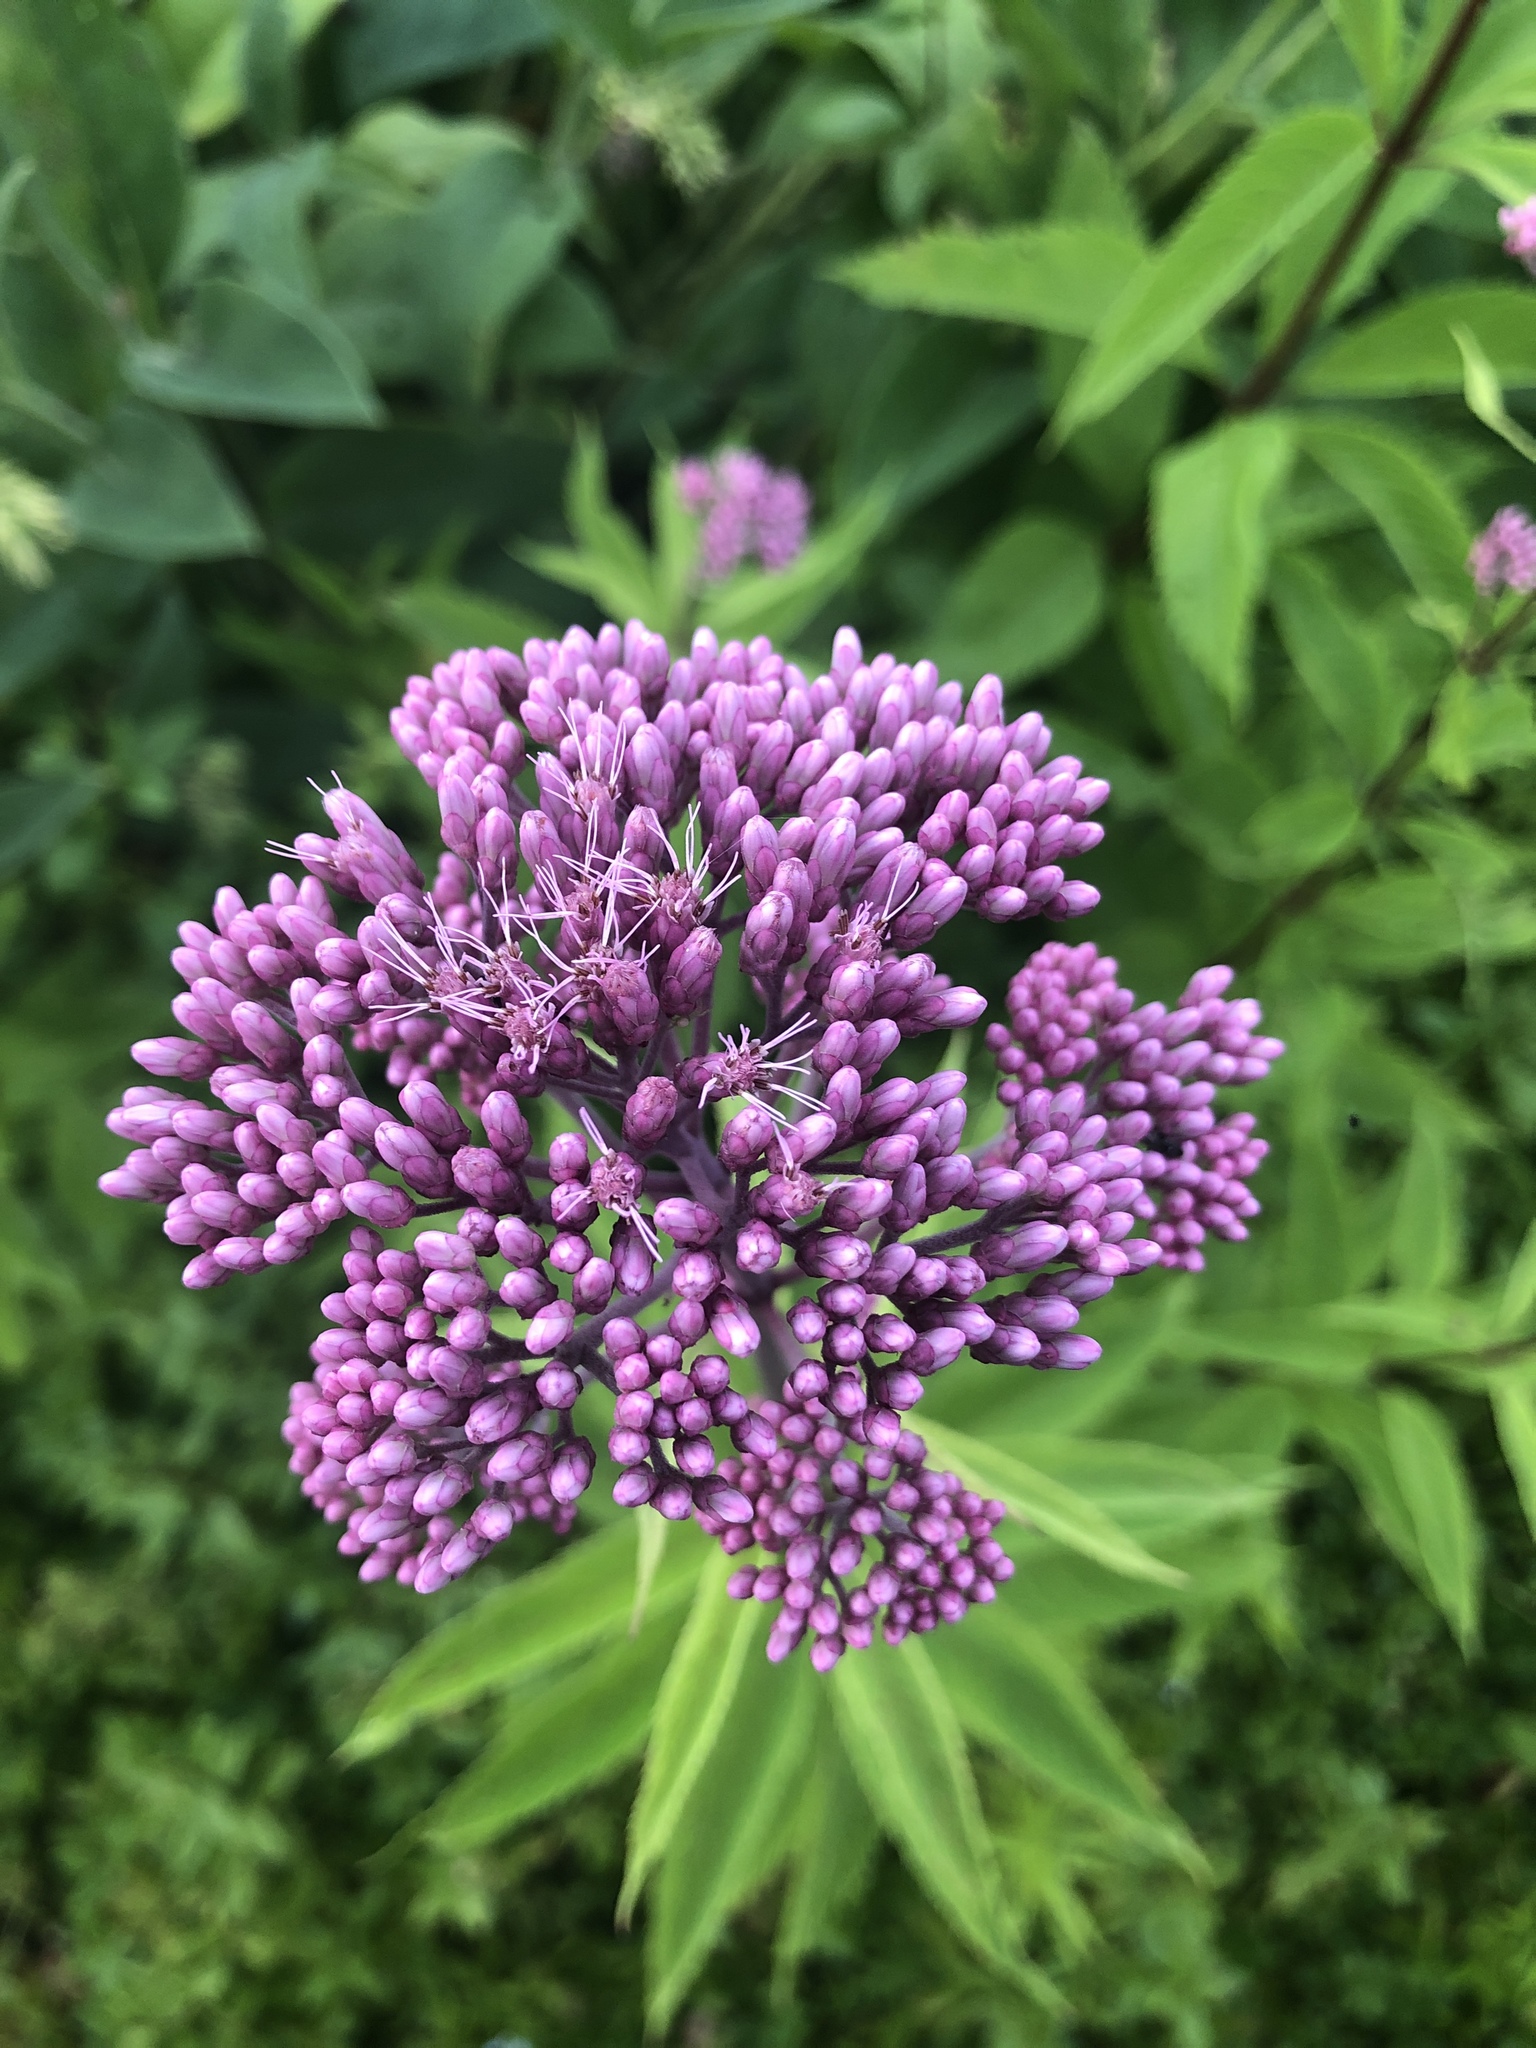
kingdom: Plantae
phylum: Tracheophyta
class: Magnoliopsida
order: Asterales
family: Asteraceae
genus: Eutrochium
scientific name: Eutrochium maculatum
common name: Spotted joe pye weed
